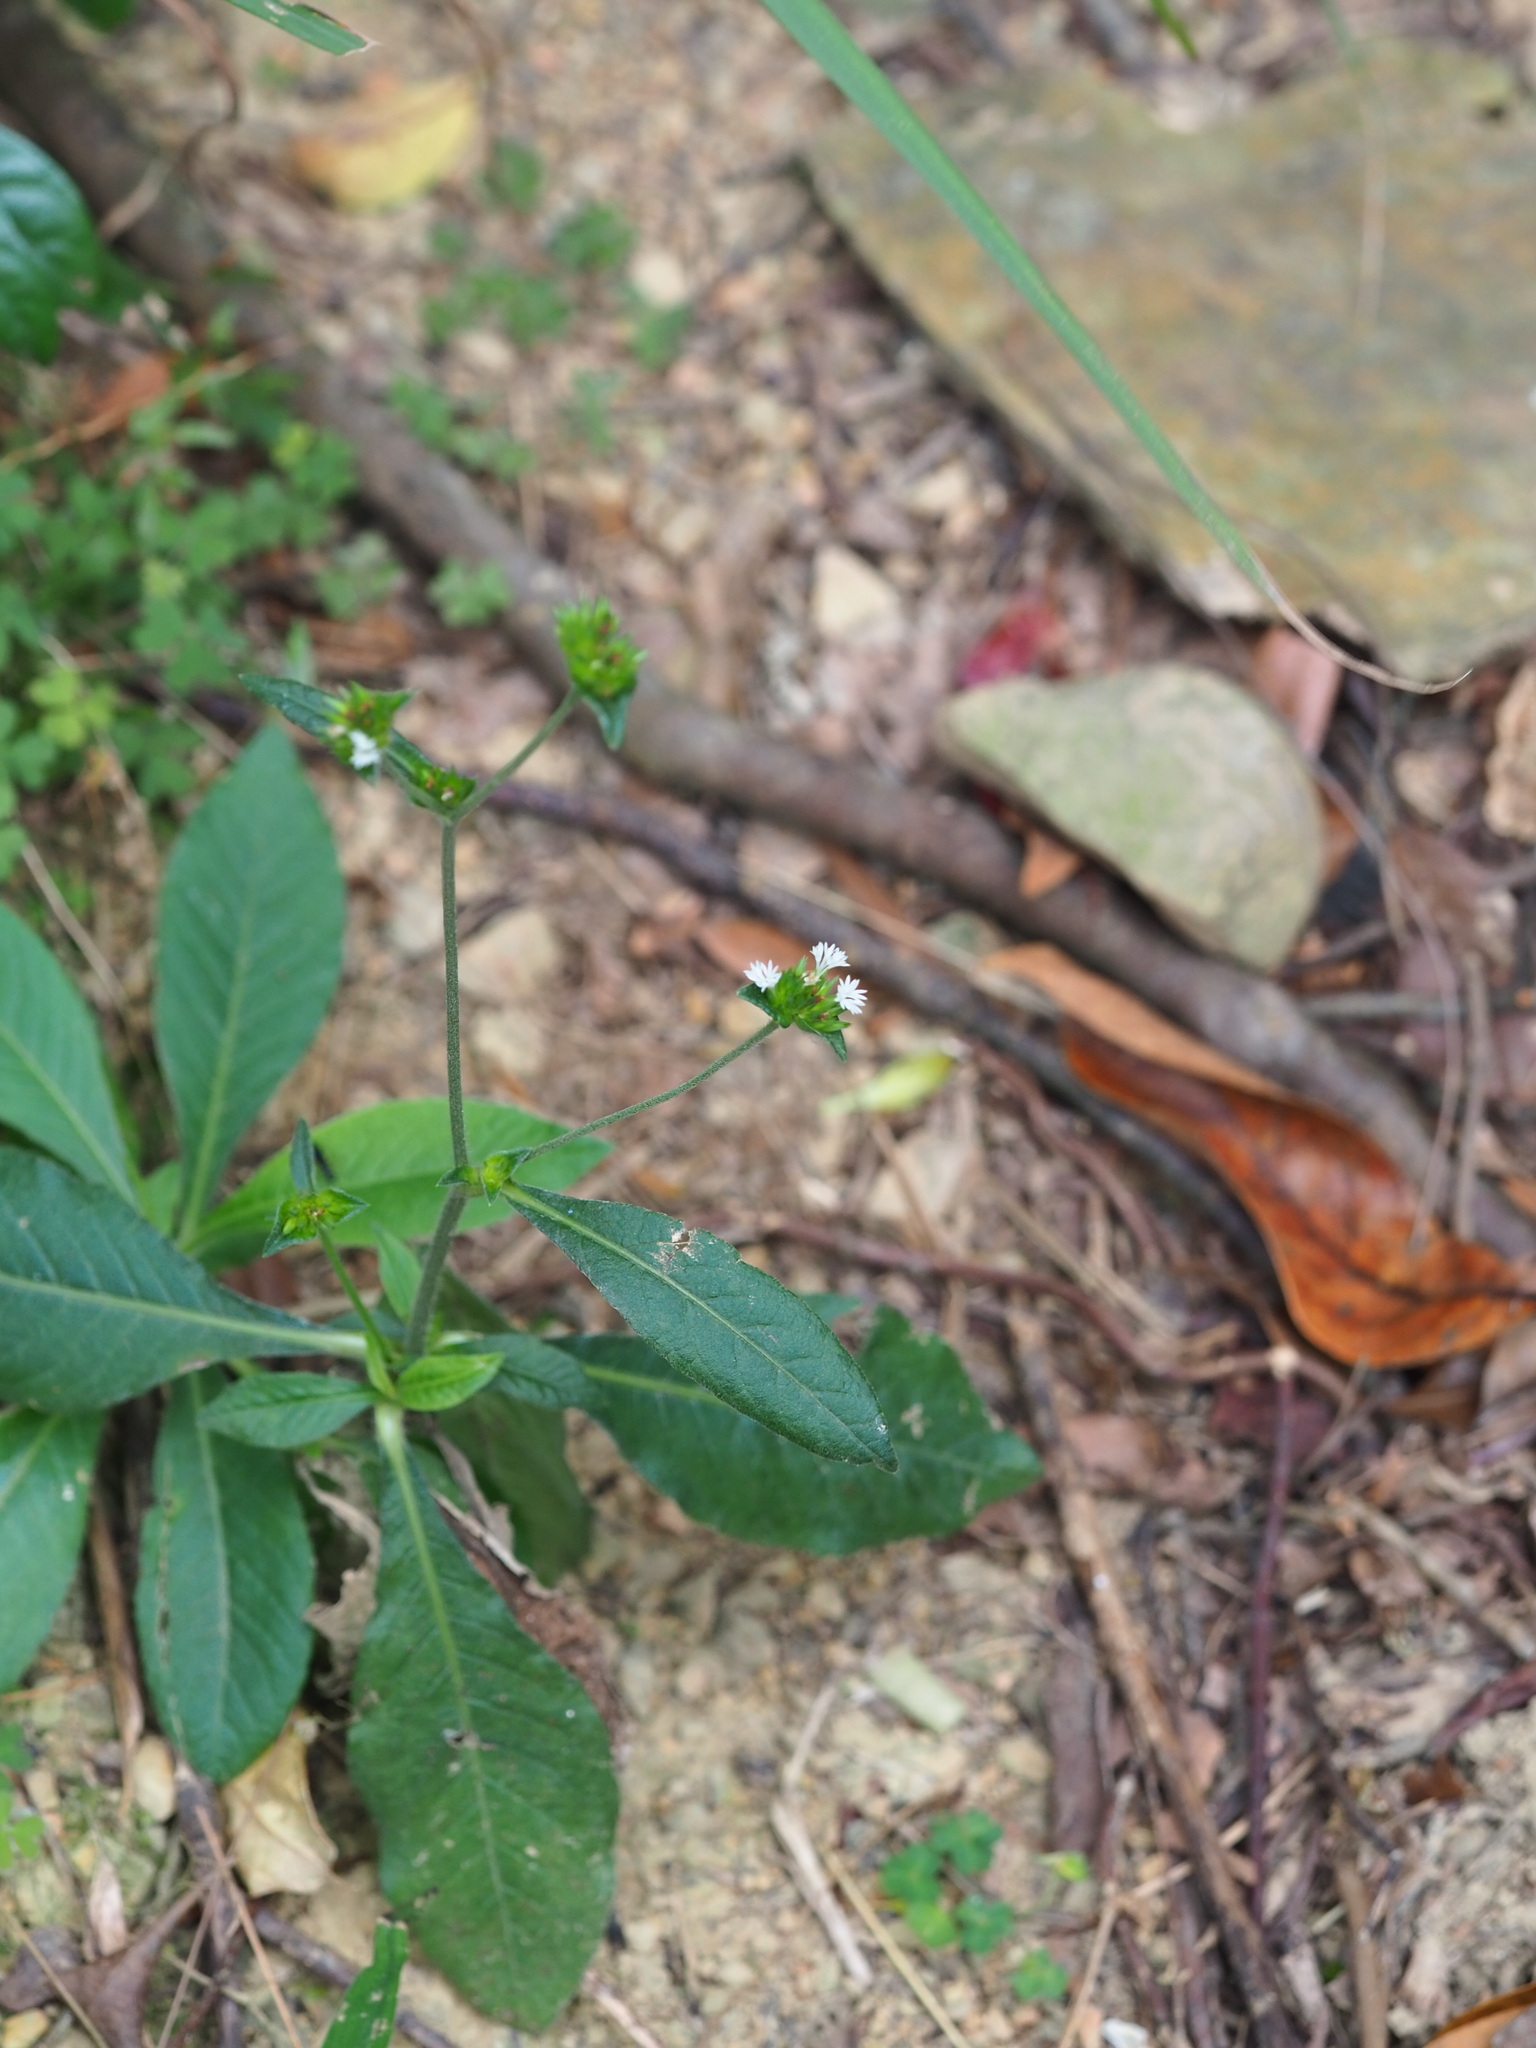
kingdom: Plantae
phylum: Tracheophyta
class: Magnoliopsida
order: Asterales
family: Asteraceae
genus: Elephantopus
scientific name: Elephantopus mollis
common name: Soft elephantsfoot
